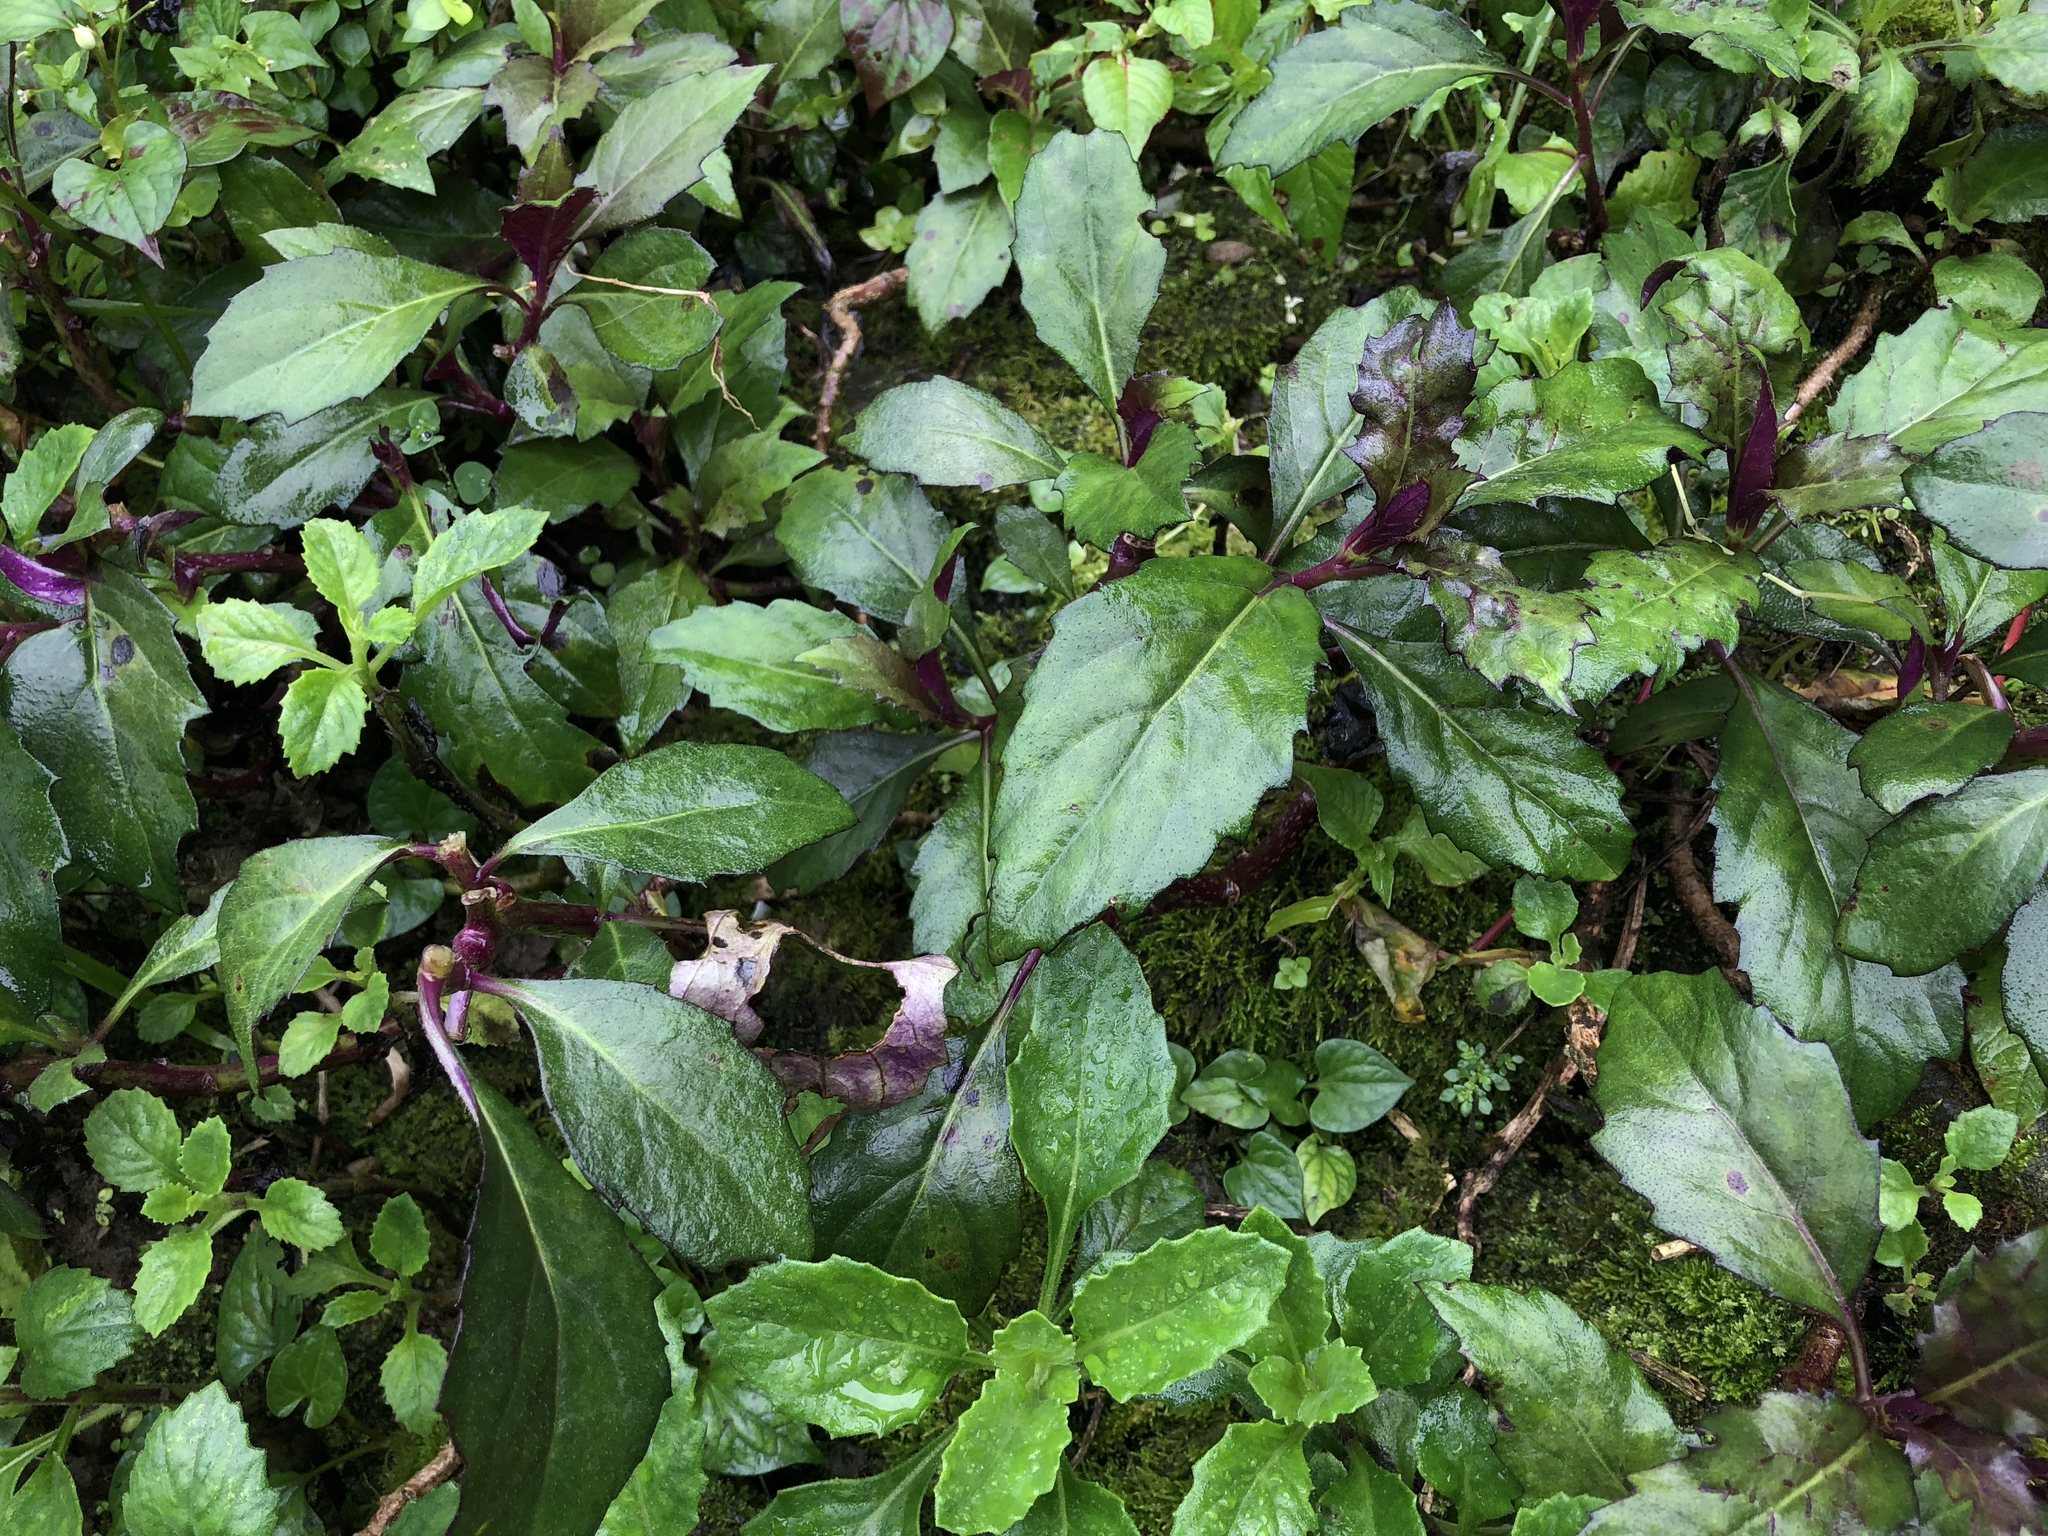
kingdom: Plantae
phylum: Tracheophyta
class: Magnoliopsida
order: Piperales
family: Saururaceae
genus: Houttuynia
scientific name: Houttuynia cordata
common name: Chameleon
